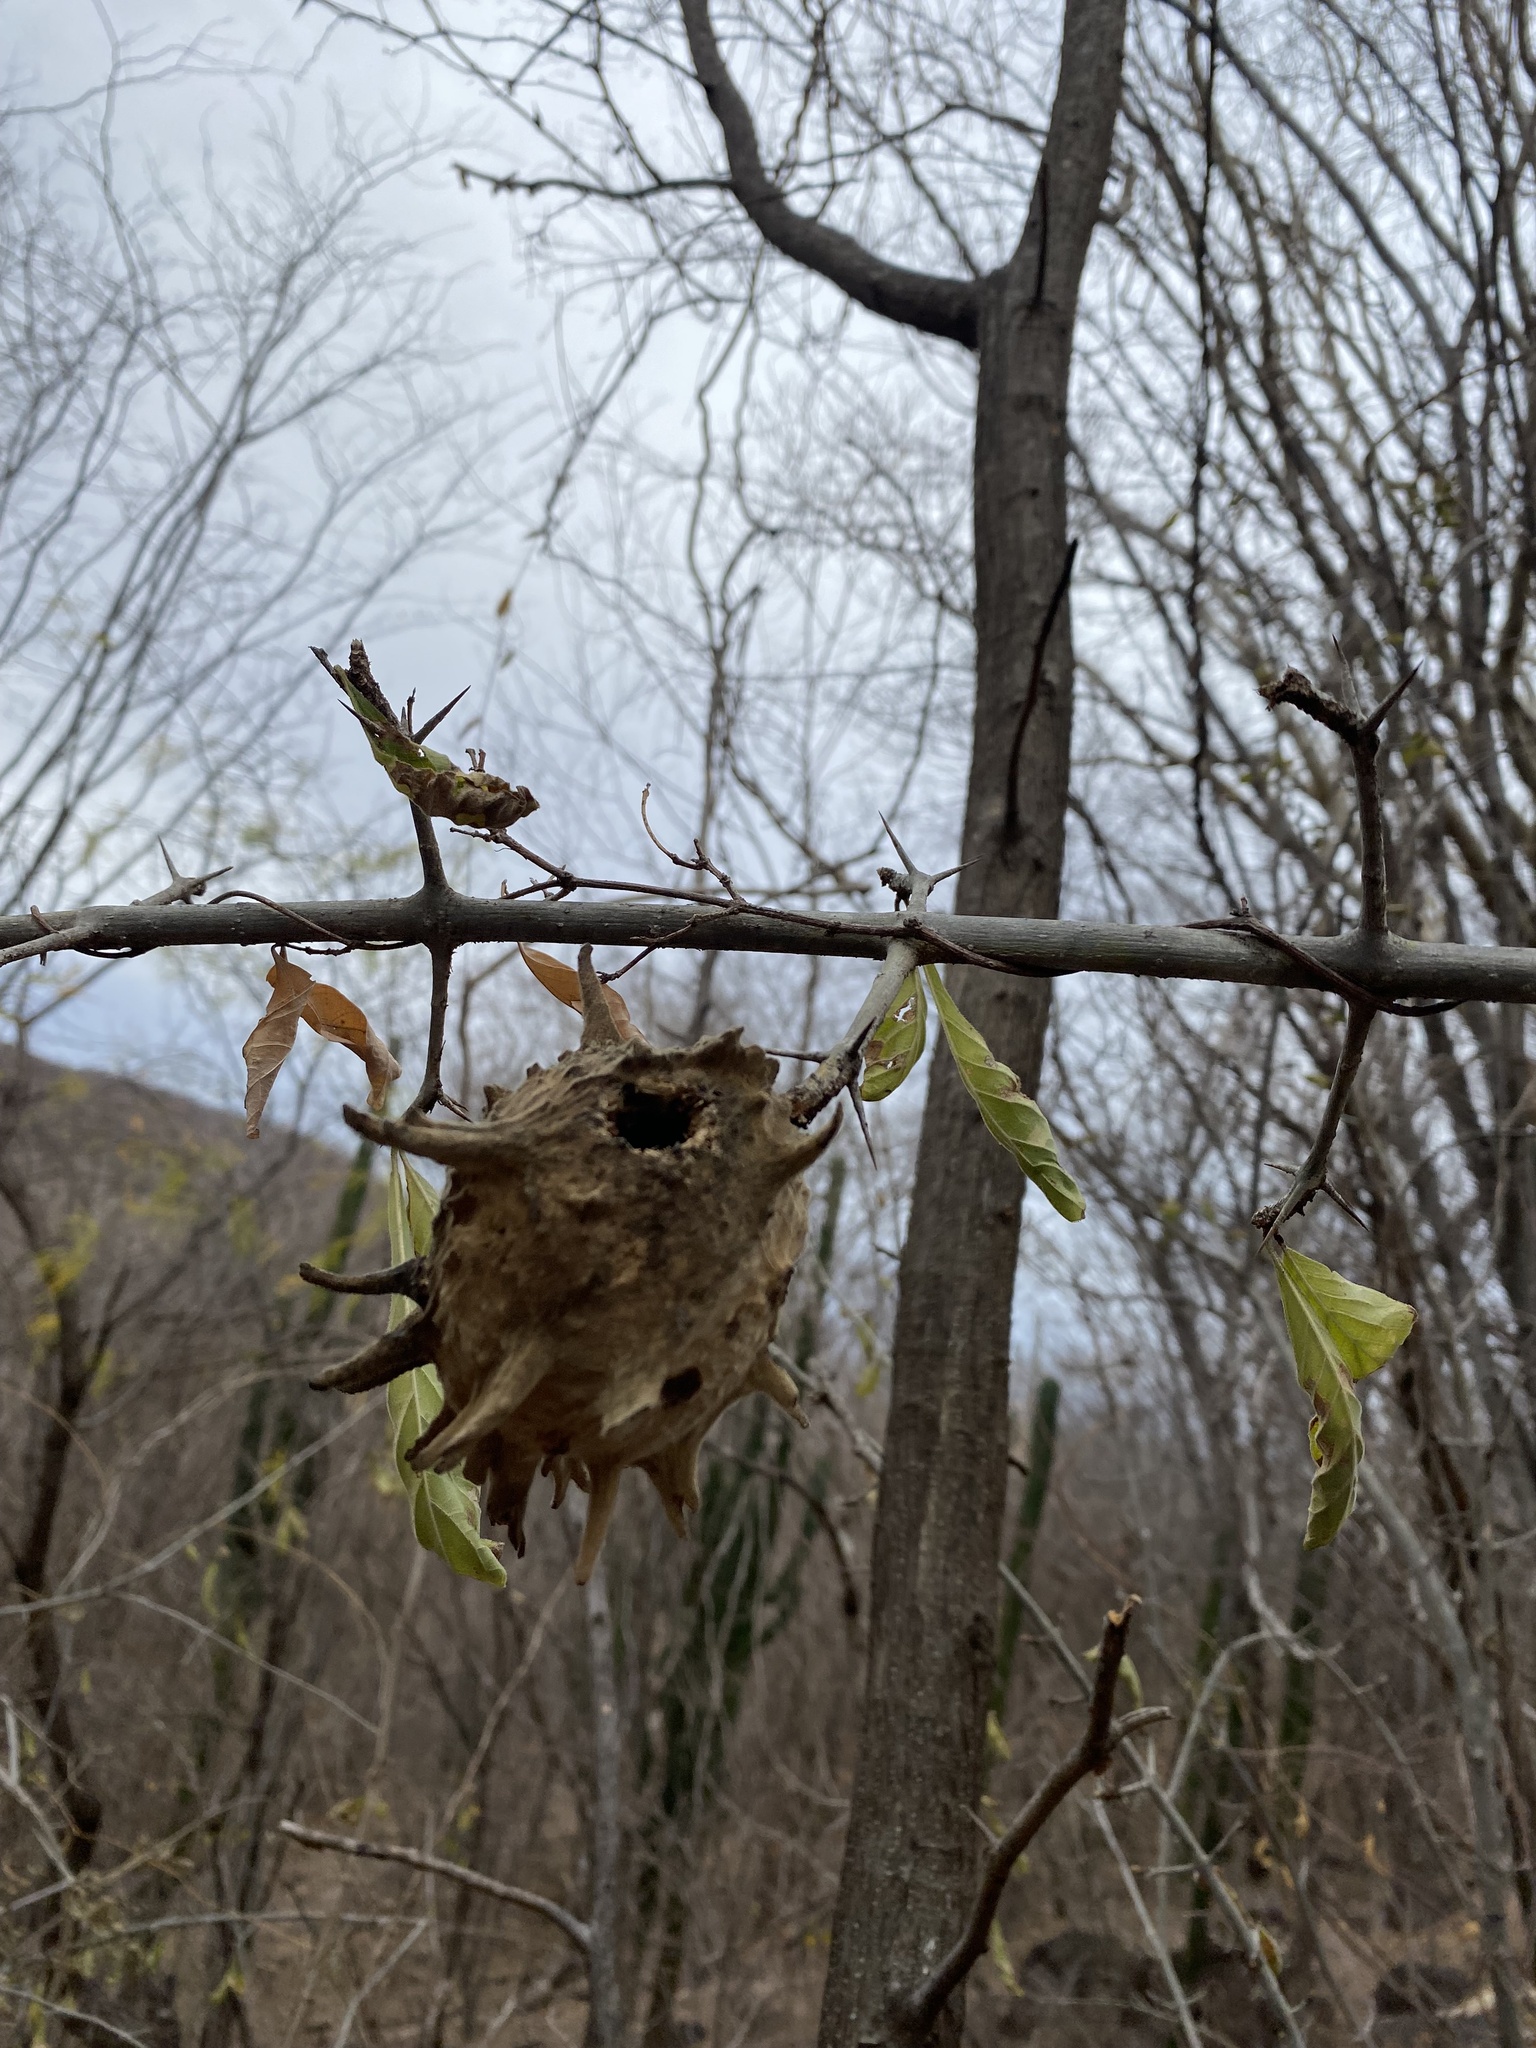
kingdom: Plantae
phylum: Tracheophyta
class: Magnoliopsida
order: Gentianales
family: Rubiaceae
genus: Randia
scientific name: Randia echinocarpa
